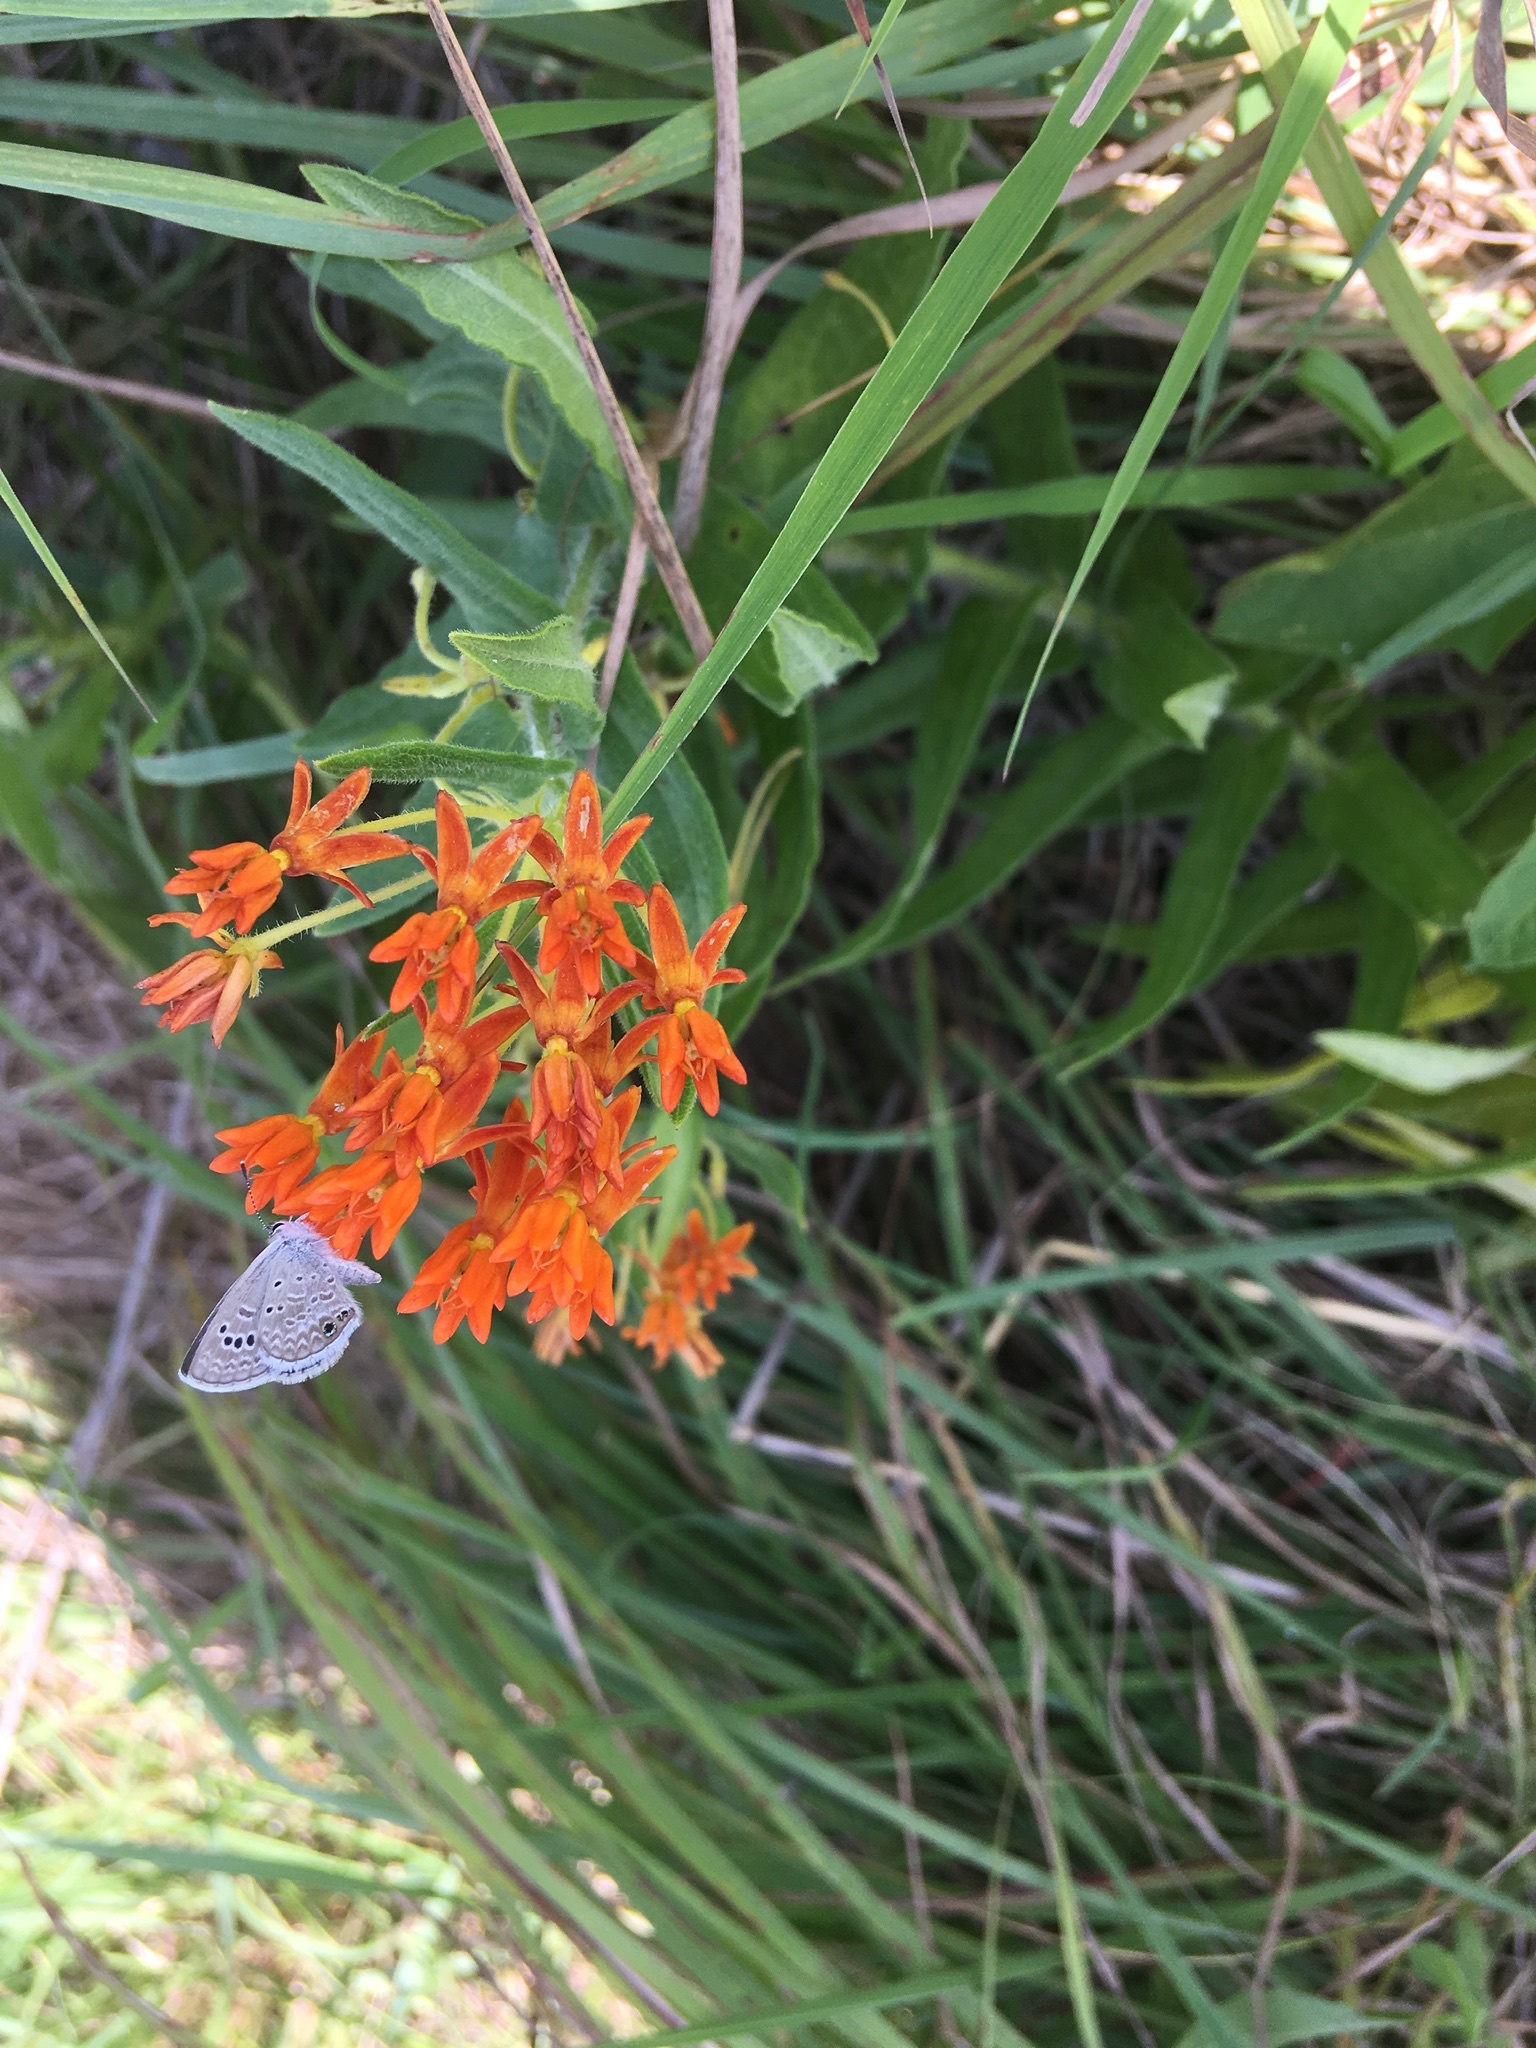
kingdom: Animalia
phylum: Arthropoda
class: Insecta
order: Lepidoptera
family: Lycaenidae
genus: Echinargus
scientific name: Echinargus isola
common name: Reakirt's blue
